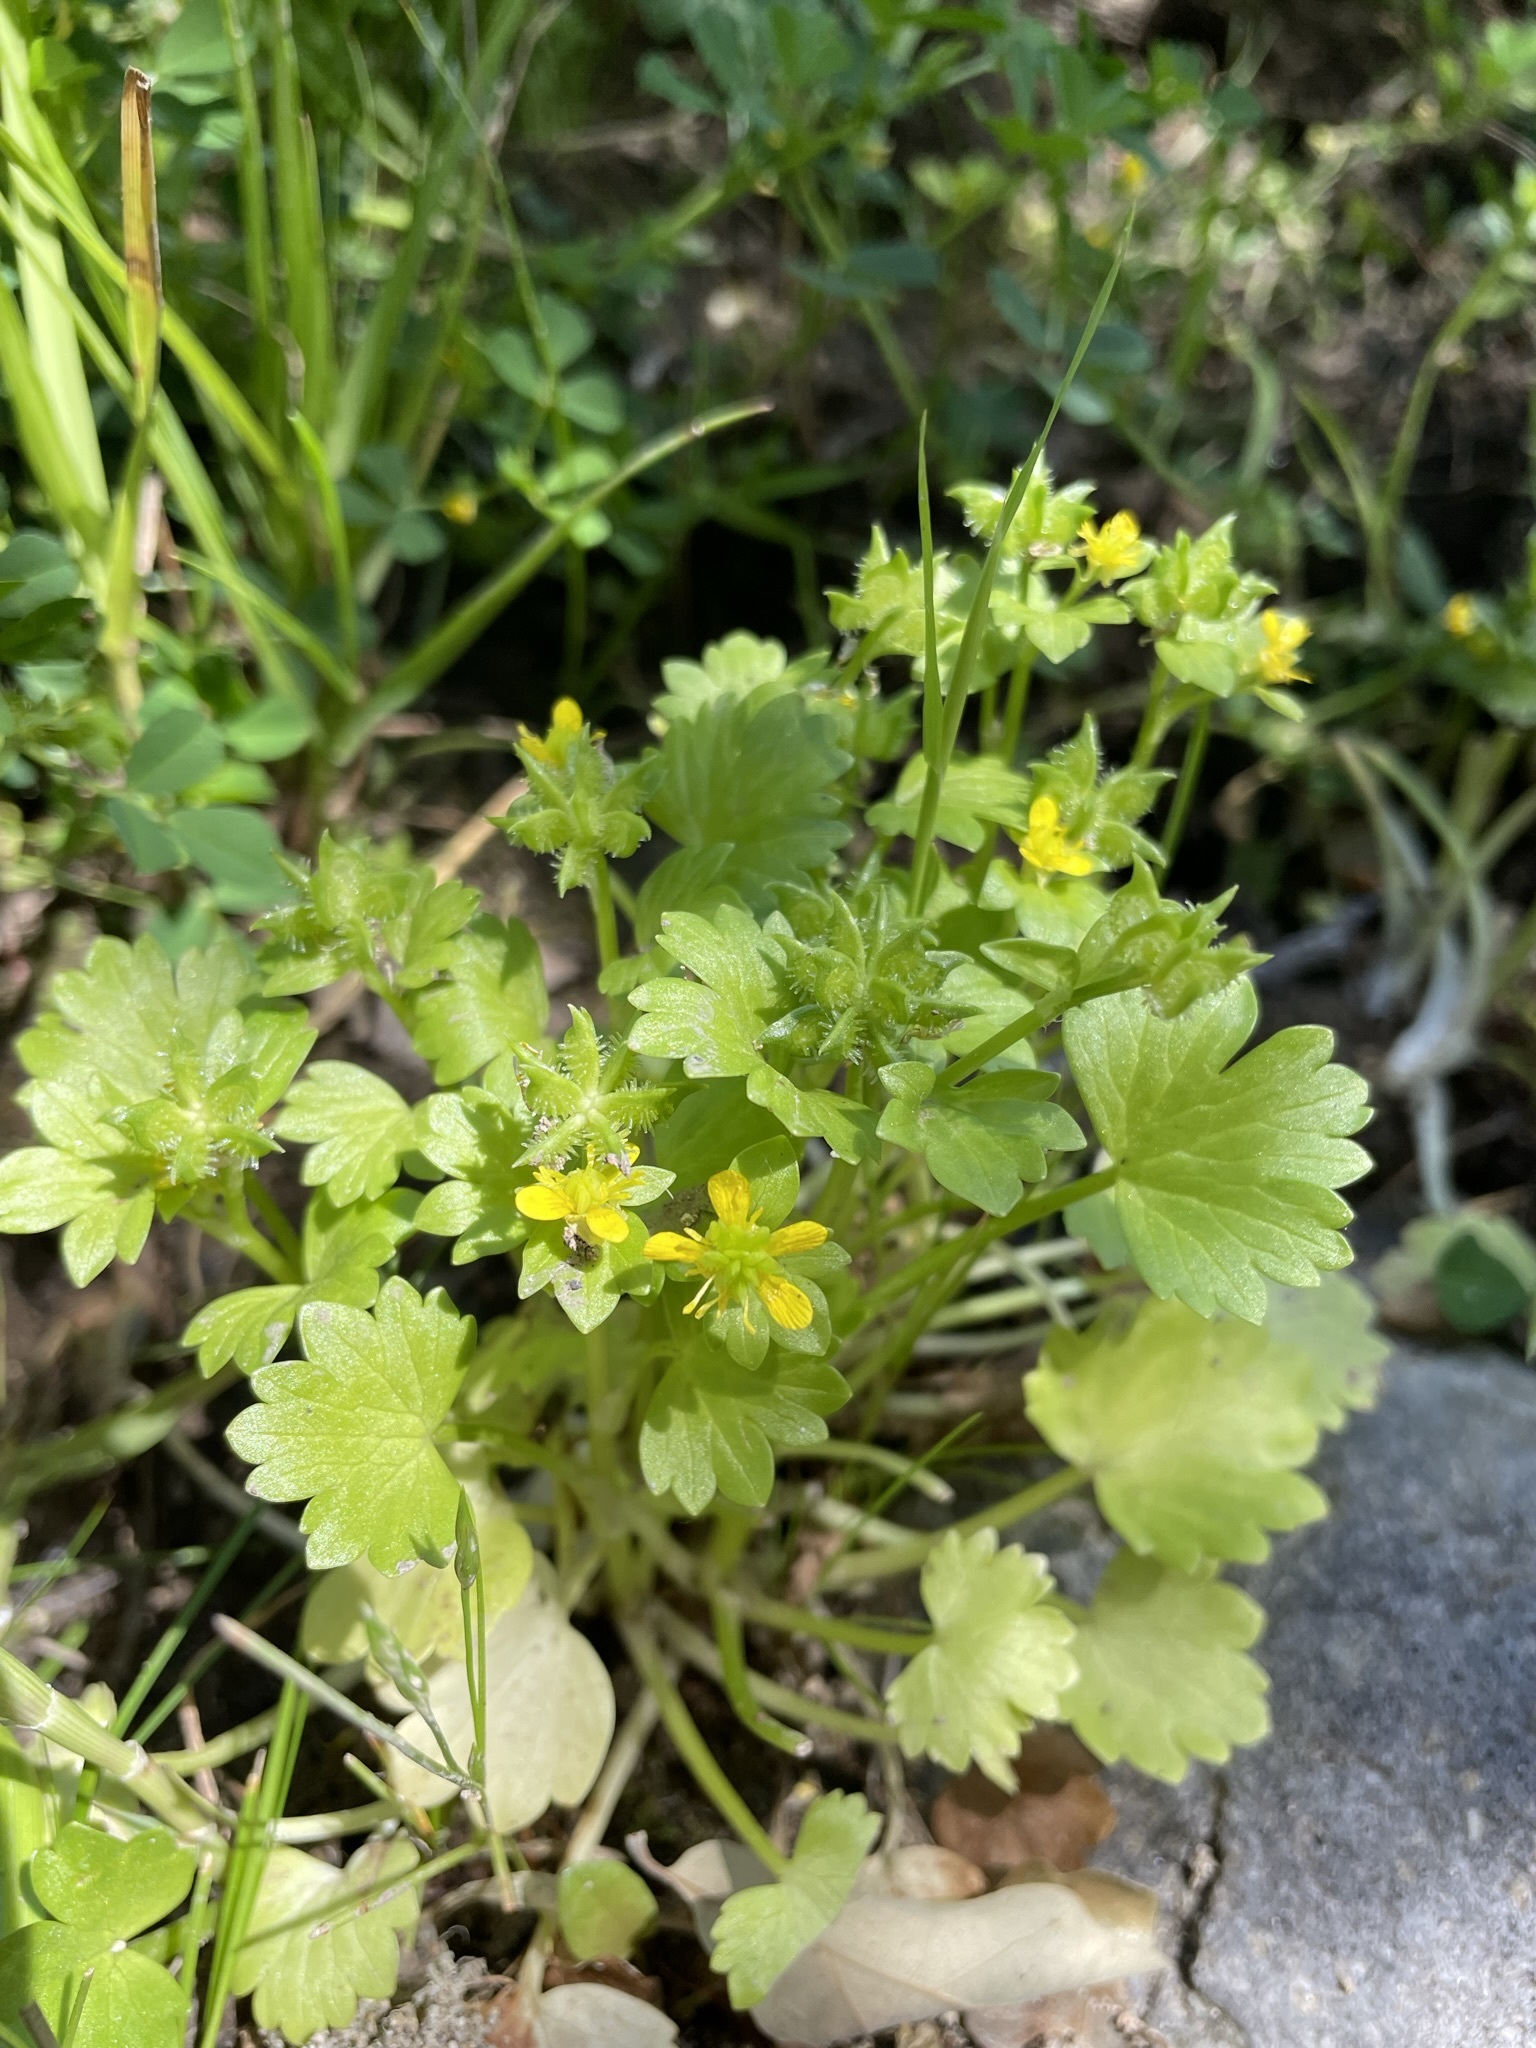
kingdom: Plantae
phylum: Tracheophyta
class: Magnoliopsida
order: Ranunculales
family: Ranunculaceae
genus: Ranunculus
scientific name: Ranunculus muricatus
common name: Rough-fruited buttercup
